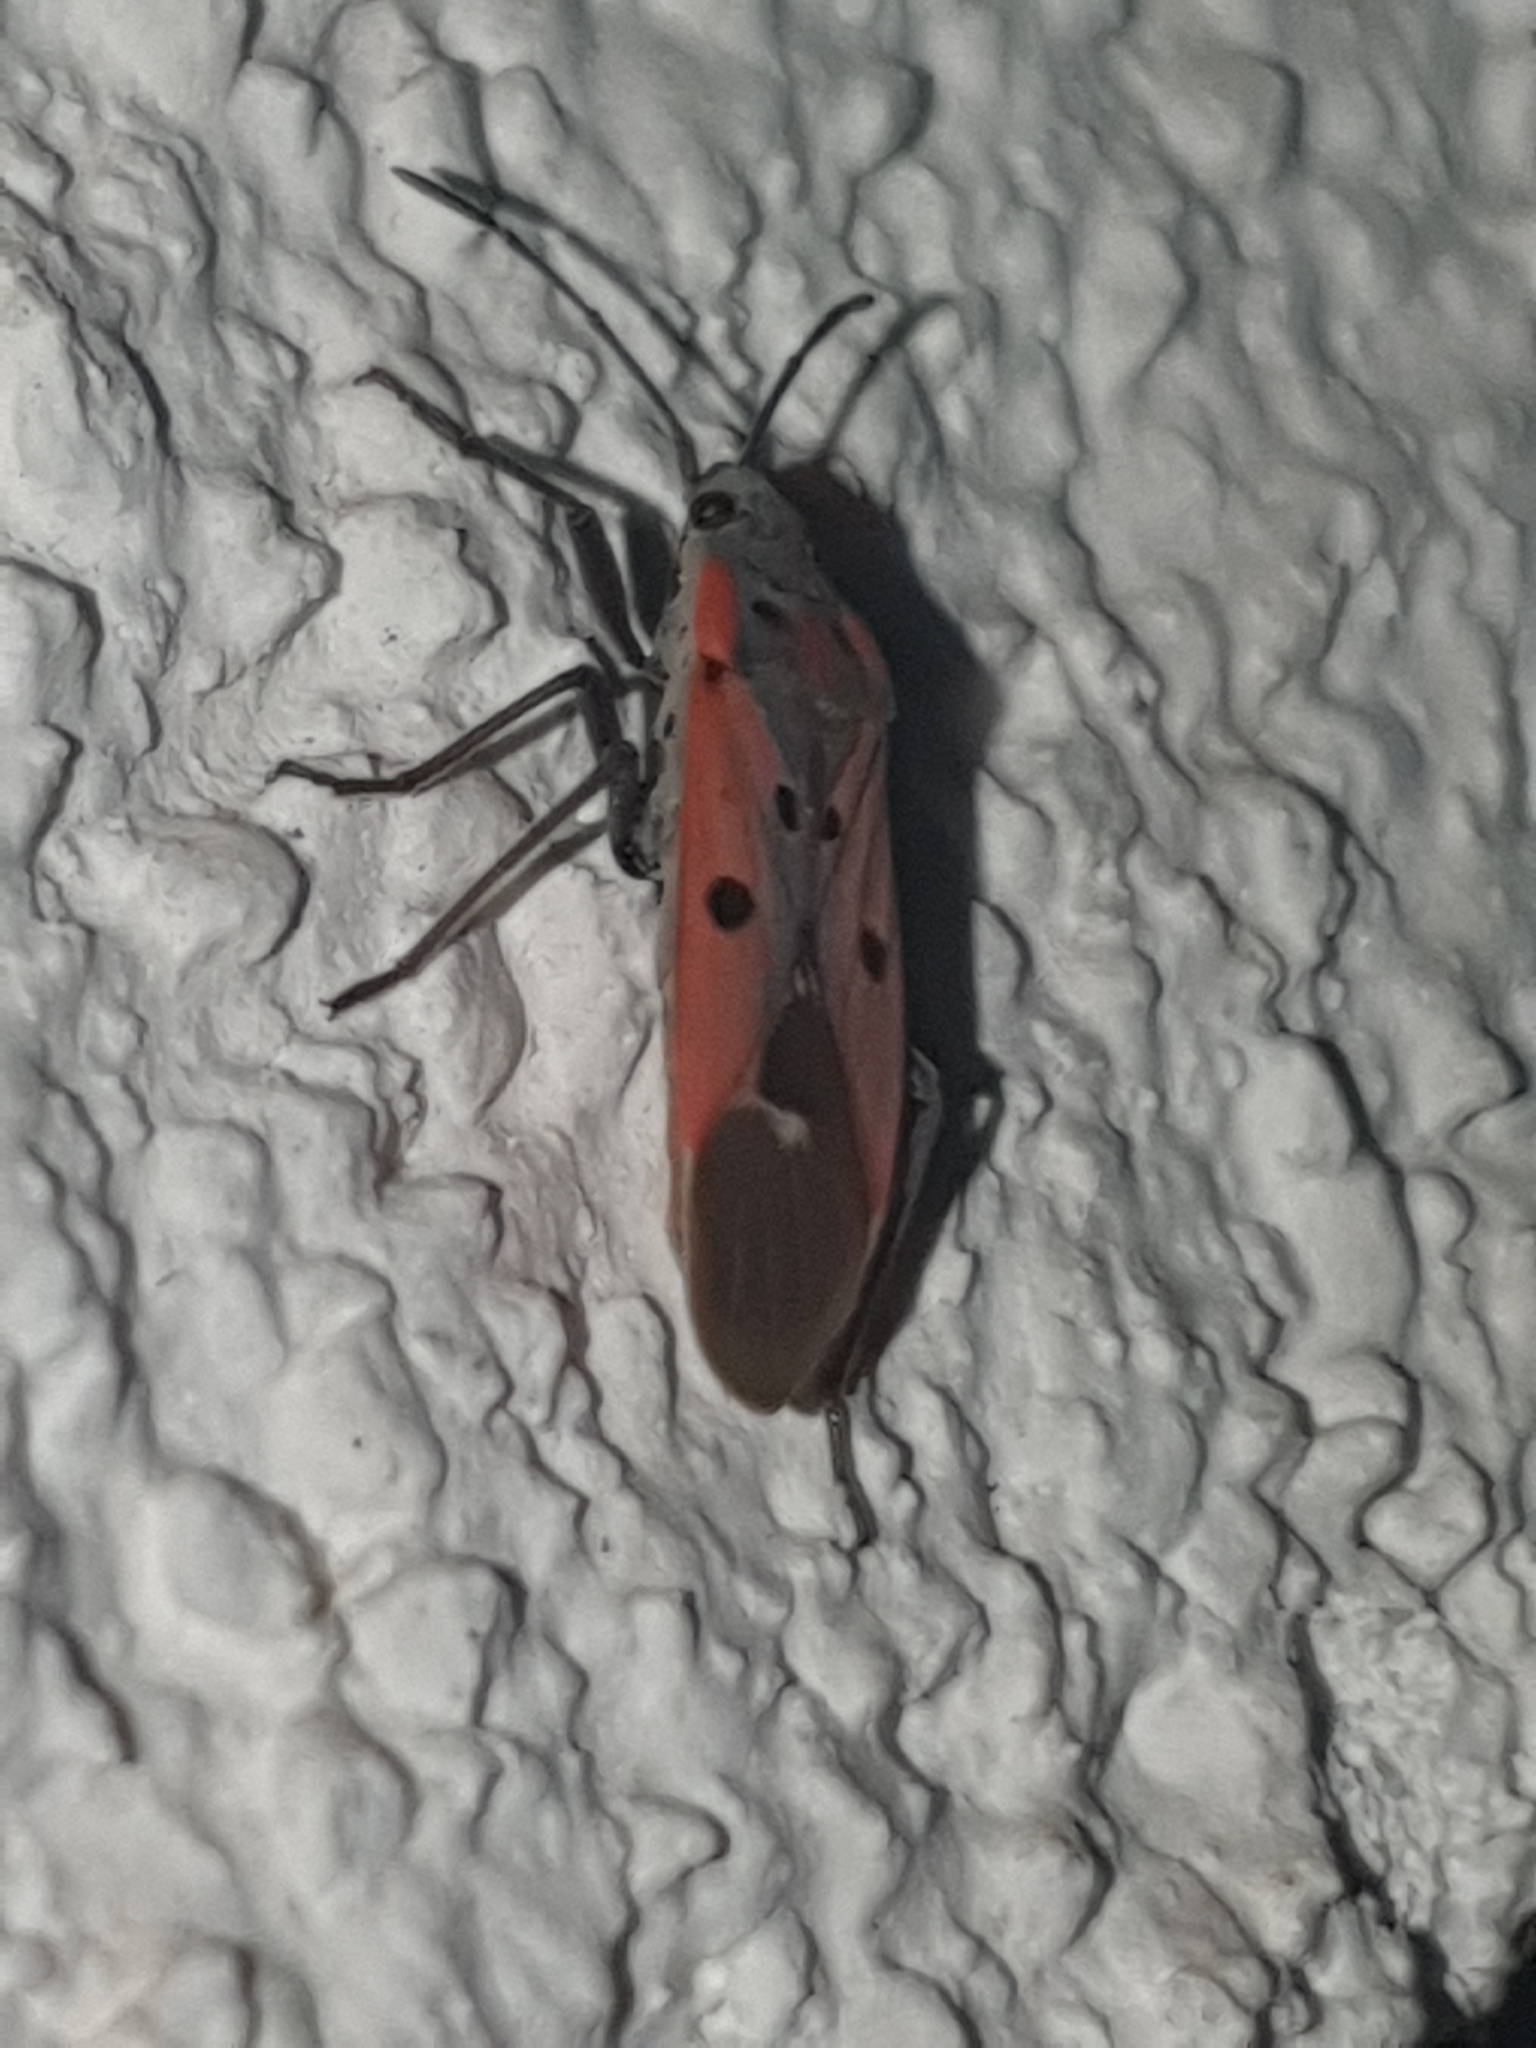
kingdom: Animalia
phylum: Arthropoda
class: Insecta
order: Hemiptera
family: Lygaeidae
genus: Lygaeus
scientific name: Lygaeus creticus
